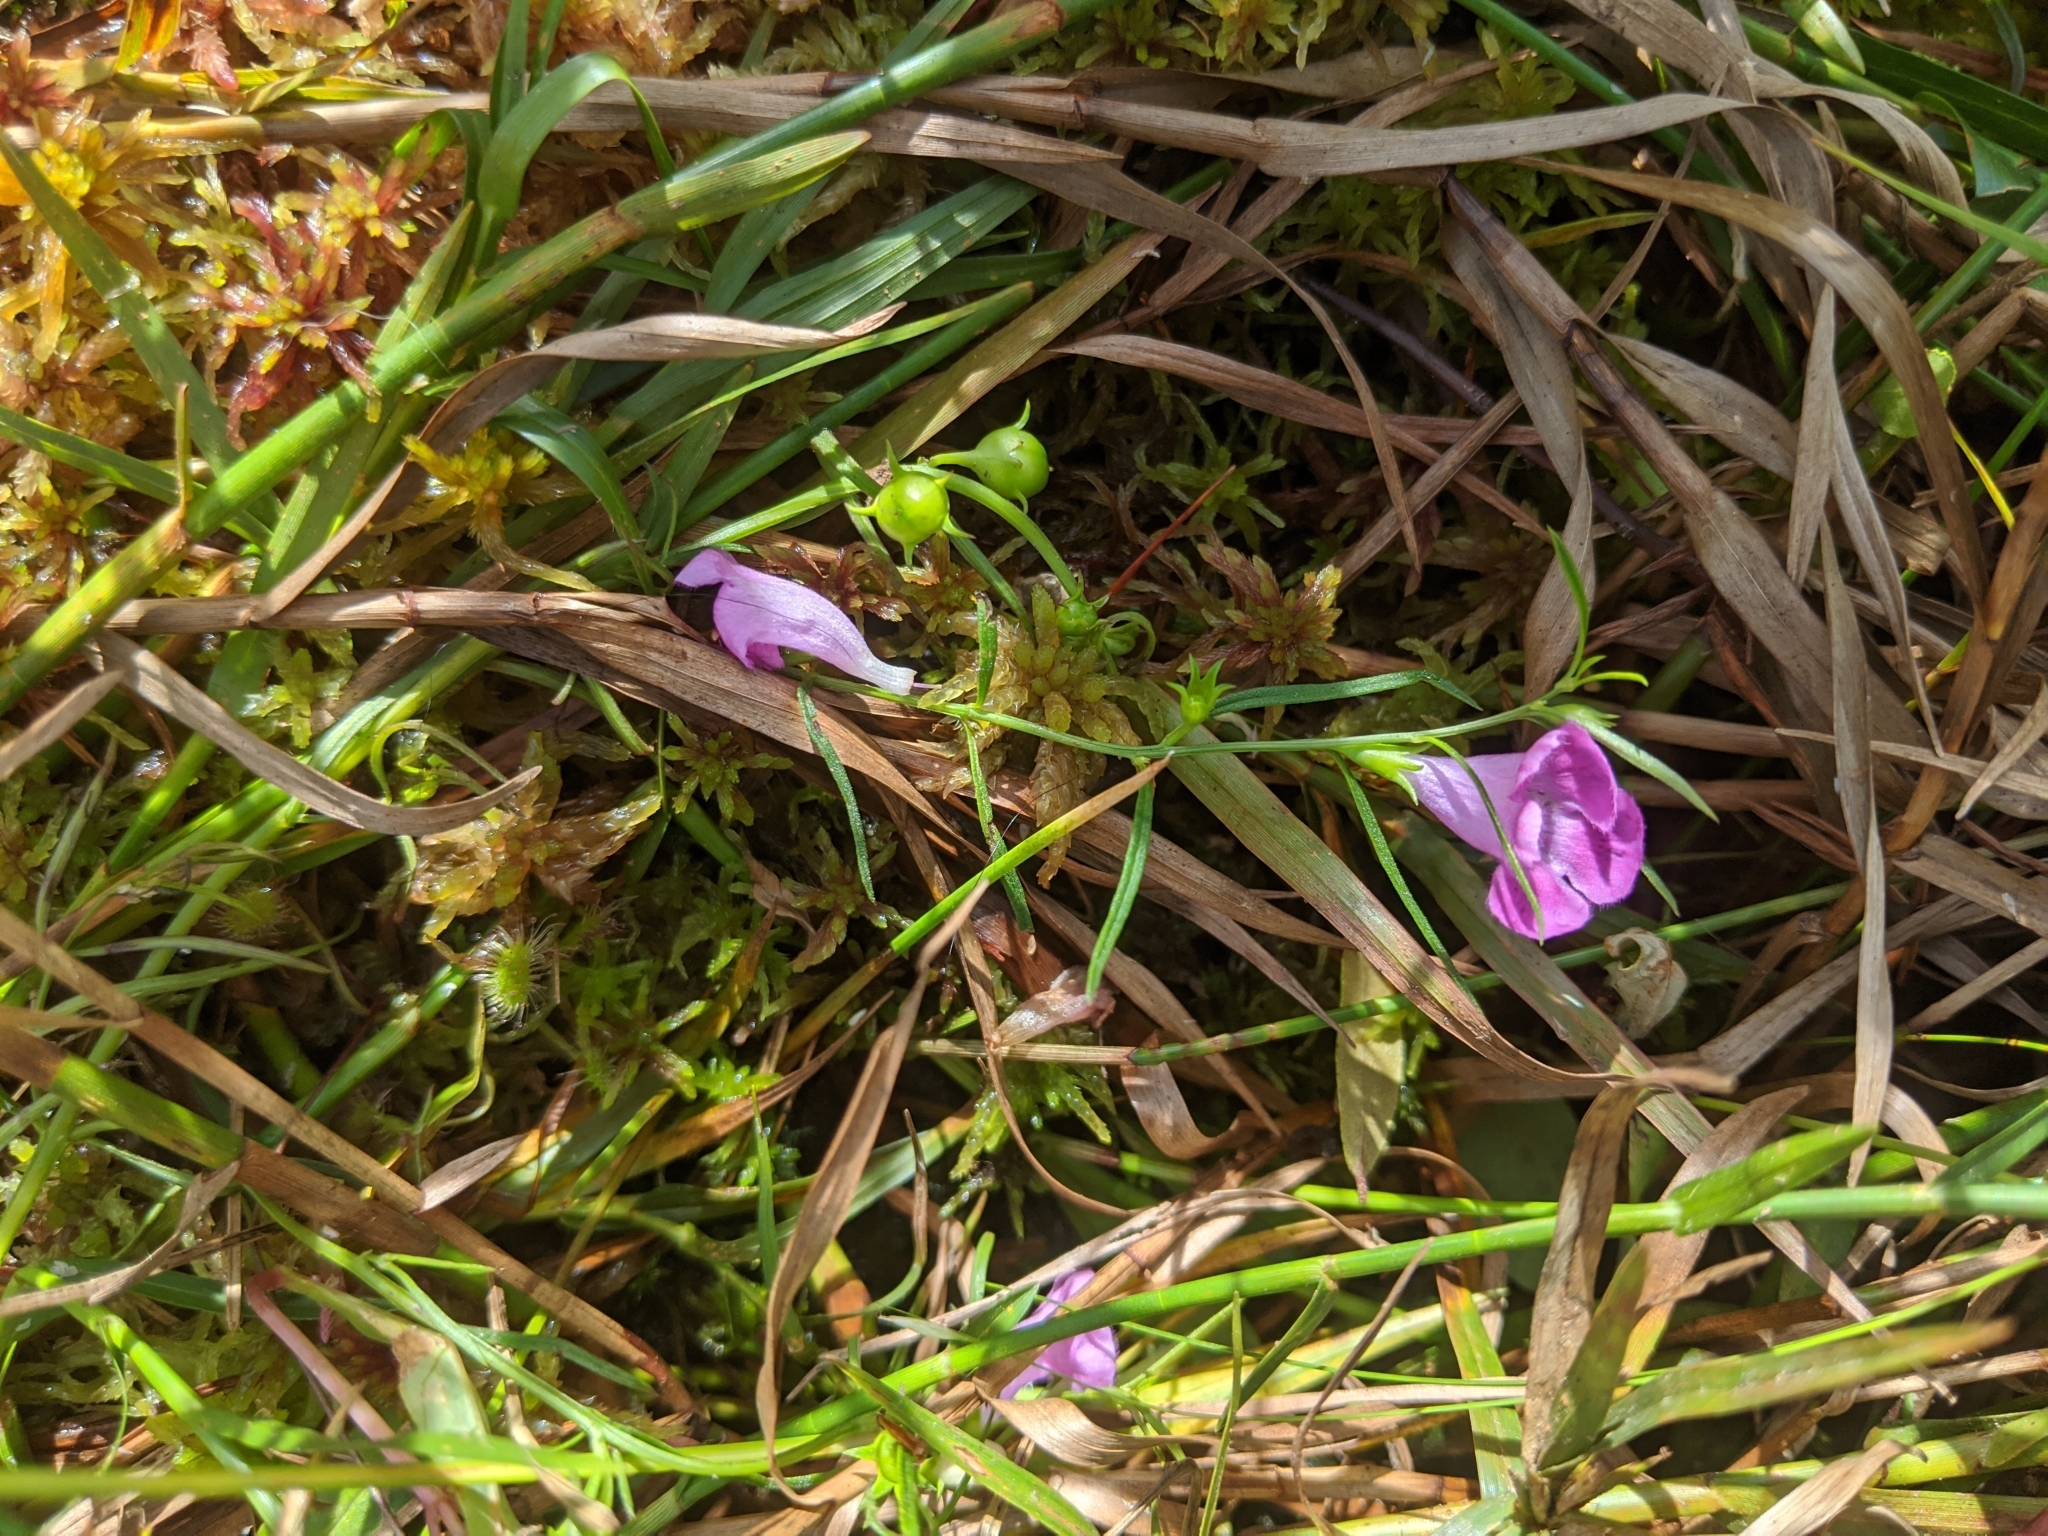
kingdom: Plantae
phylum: Tracheophyta
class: Magnoliopsida
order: Lamiales
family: Orobanchaceae
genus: Agalinis
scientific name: Agalinis purpurea
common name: Purple false foxglove
